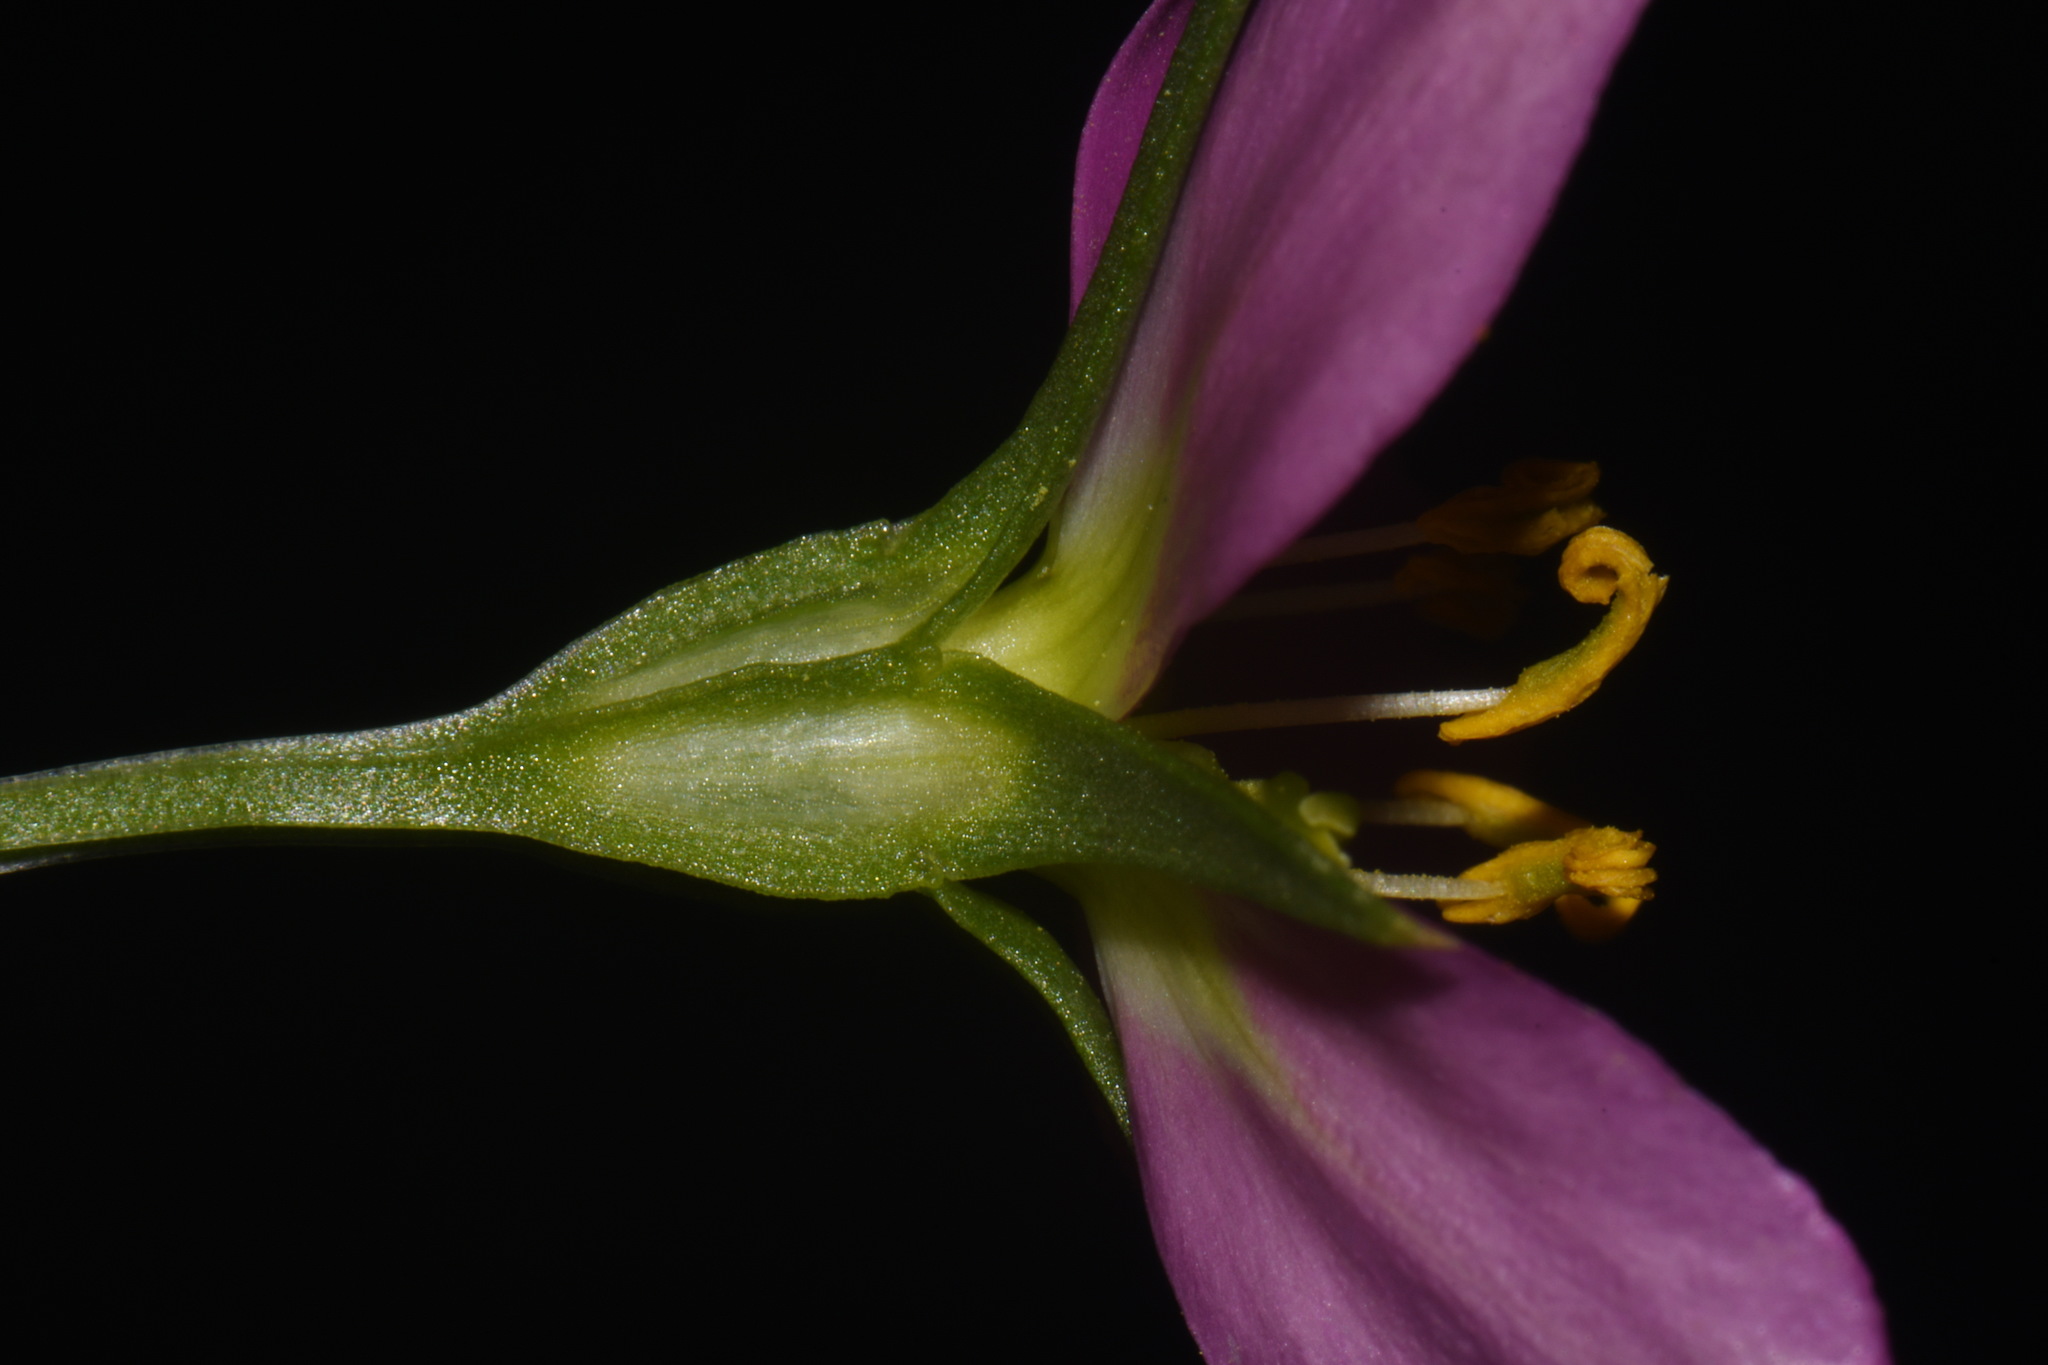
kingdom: Plantae
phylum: Tracheophyta
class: Magnoliopsida
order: Gentianales
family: Gentianaceae
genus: Sabatia
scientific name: Sabatia campestris
